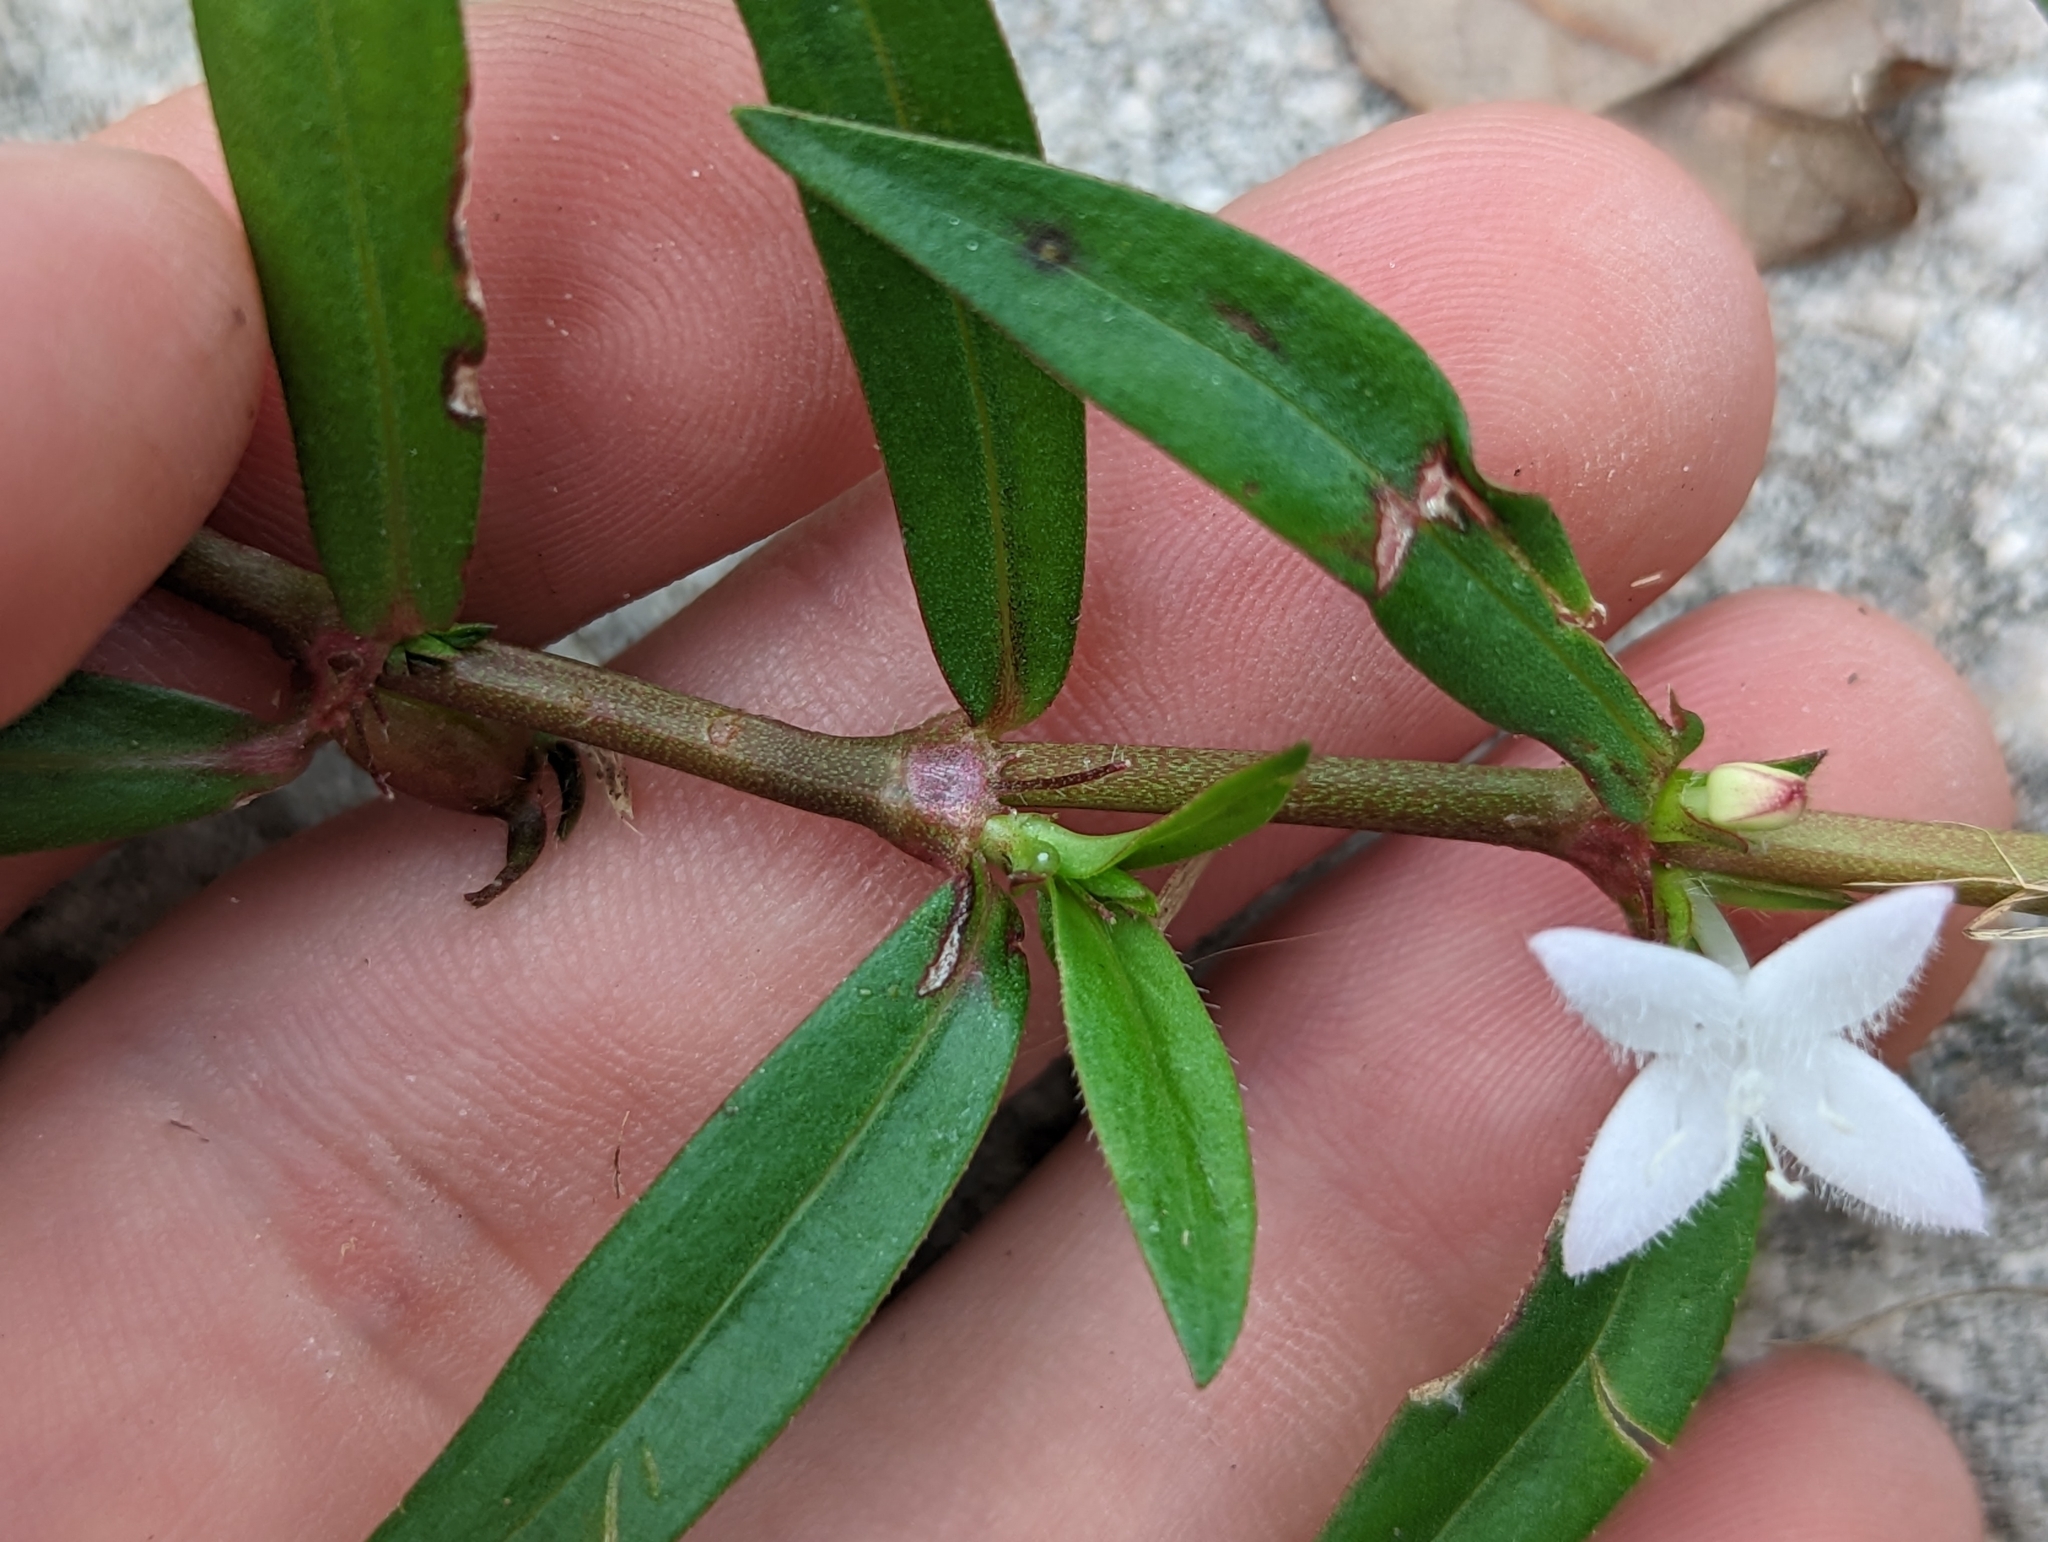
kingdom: Plantae
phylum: Tracheophyta
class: Magnoliopsida
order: Gentianales
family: Rubiaceae
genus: Diodia
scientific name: Diodia virginiana
